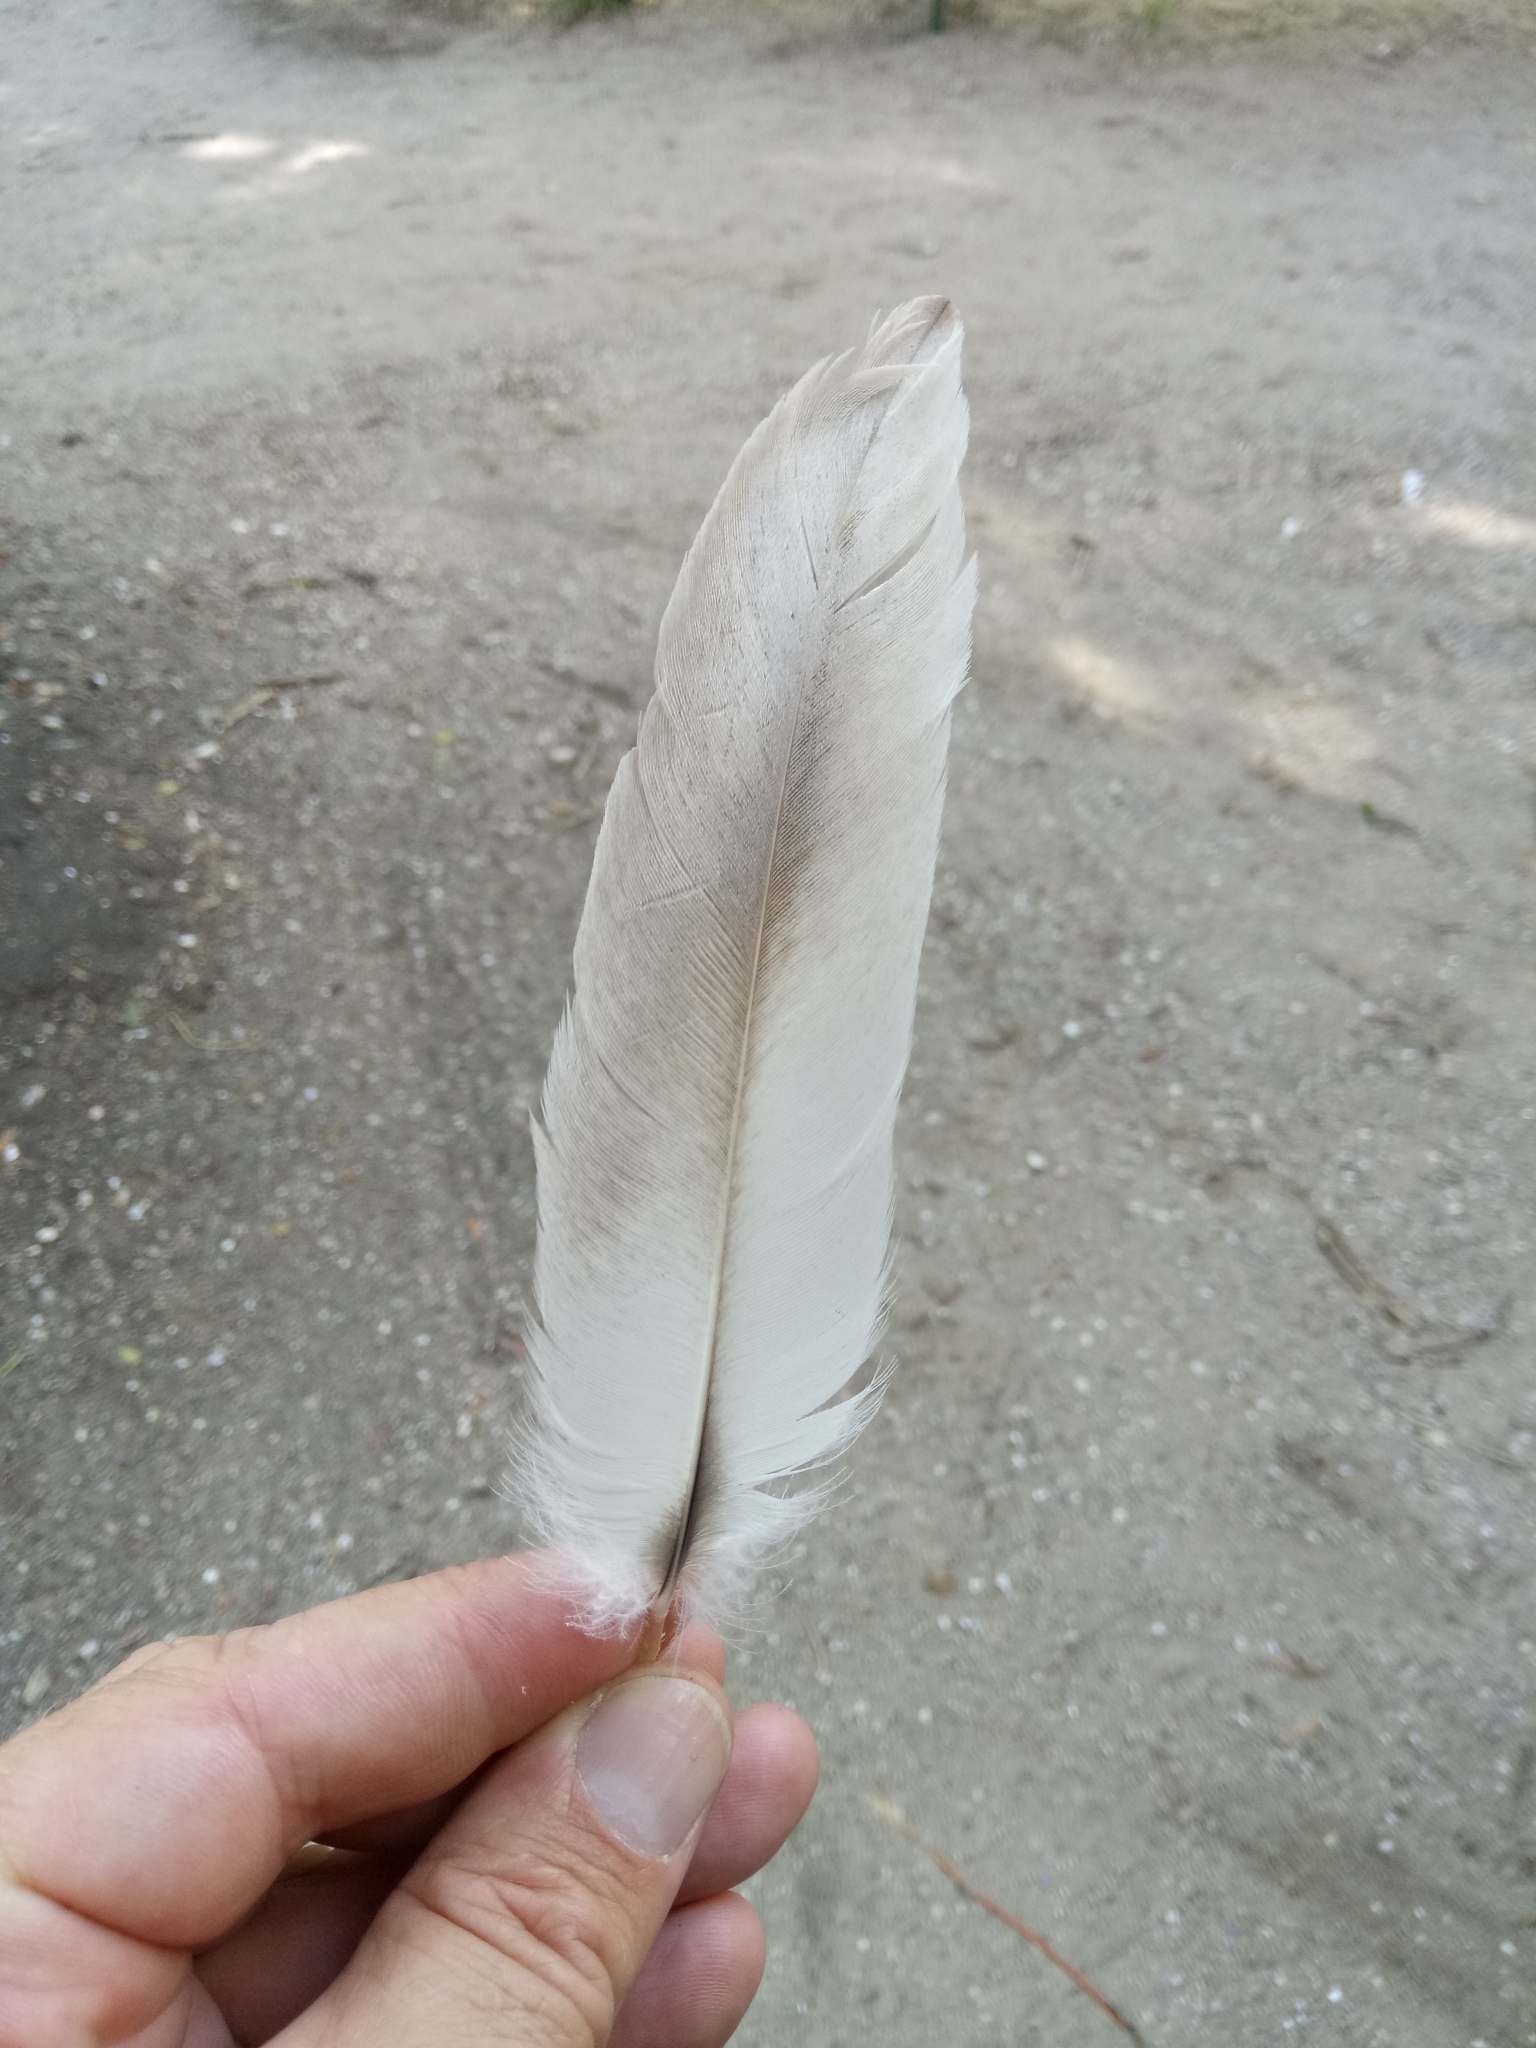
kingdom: Animalia
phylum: Chordata
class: Aves
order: Pelecaniformes
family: Pelecanidae
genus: Pelecanus
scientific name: Pelecanus crispus
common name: Dalmatian pelican
